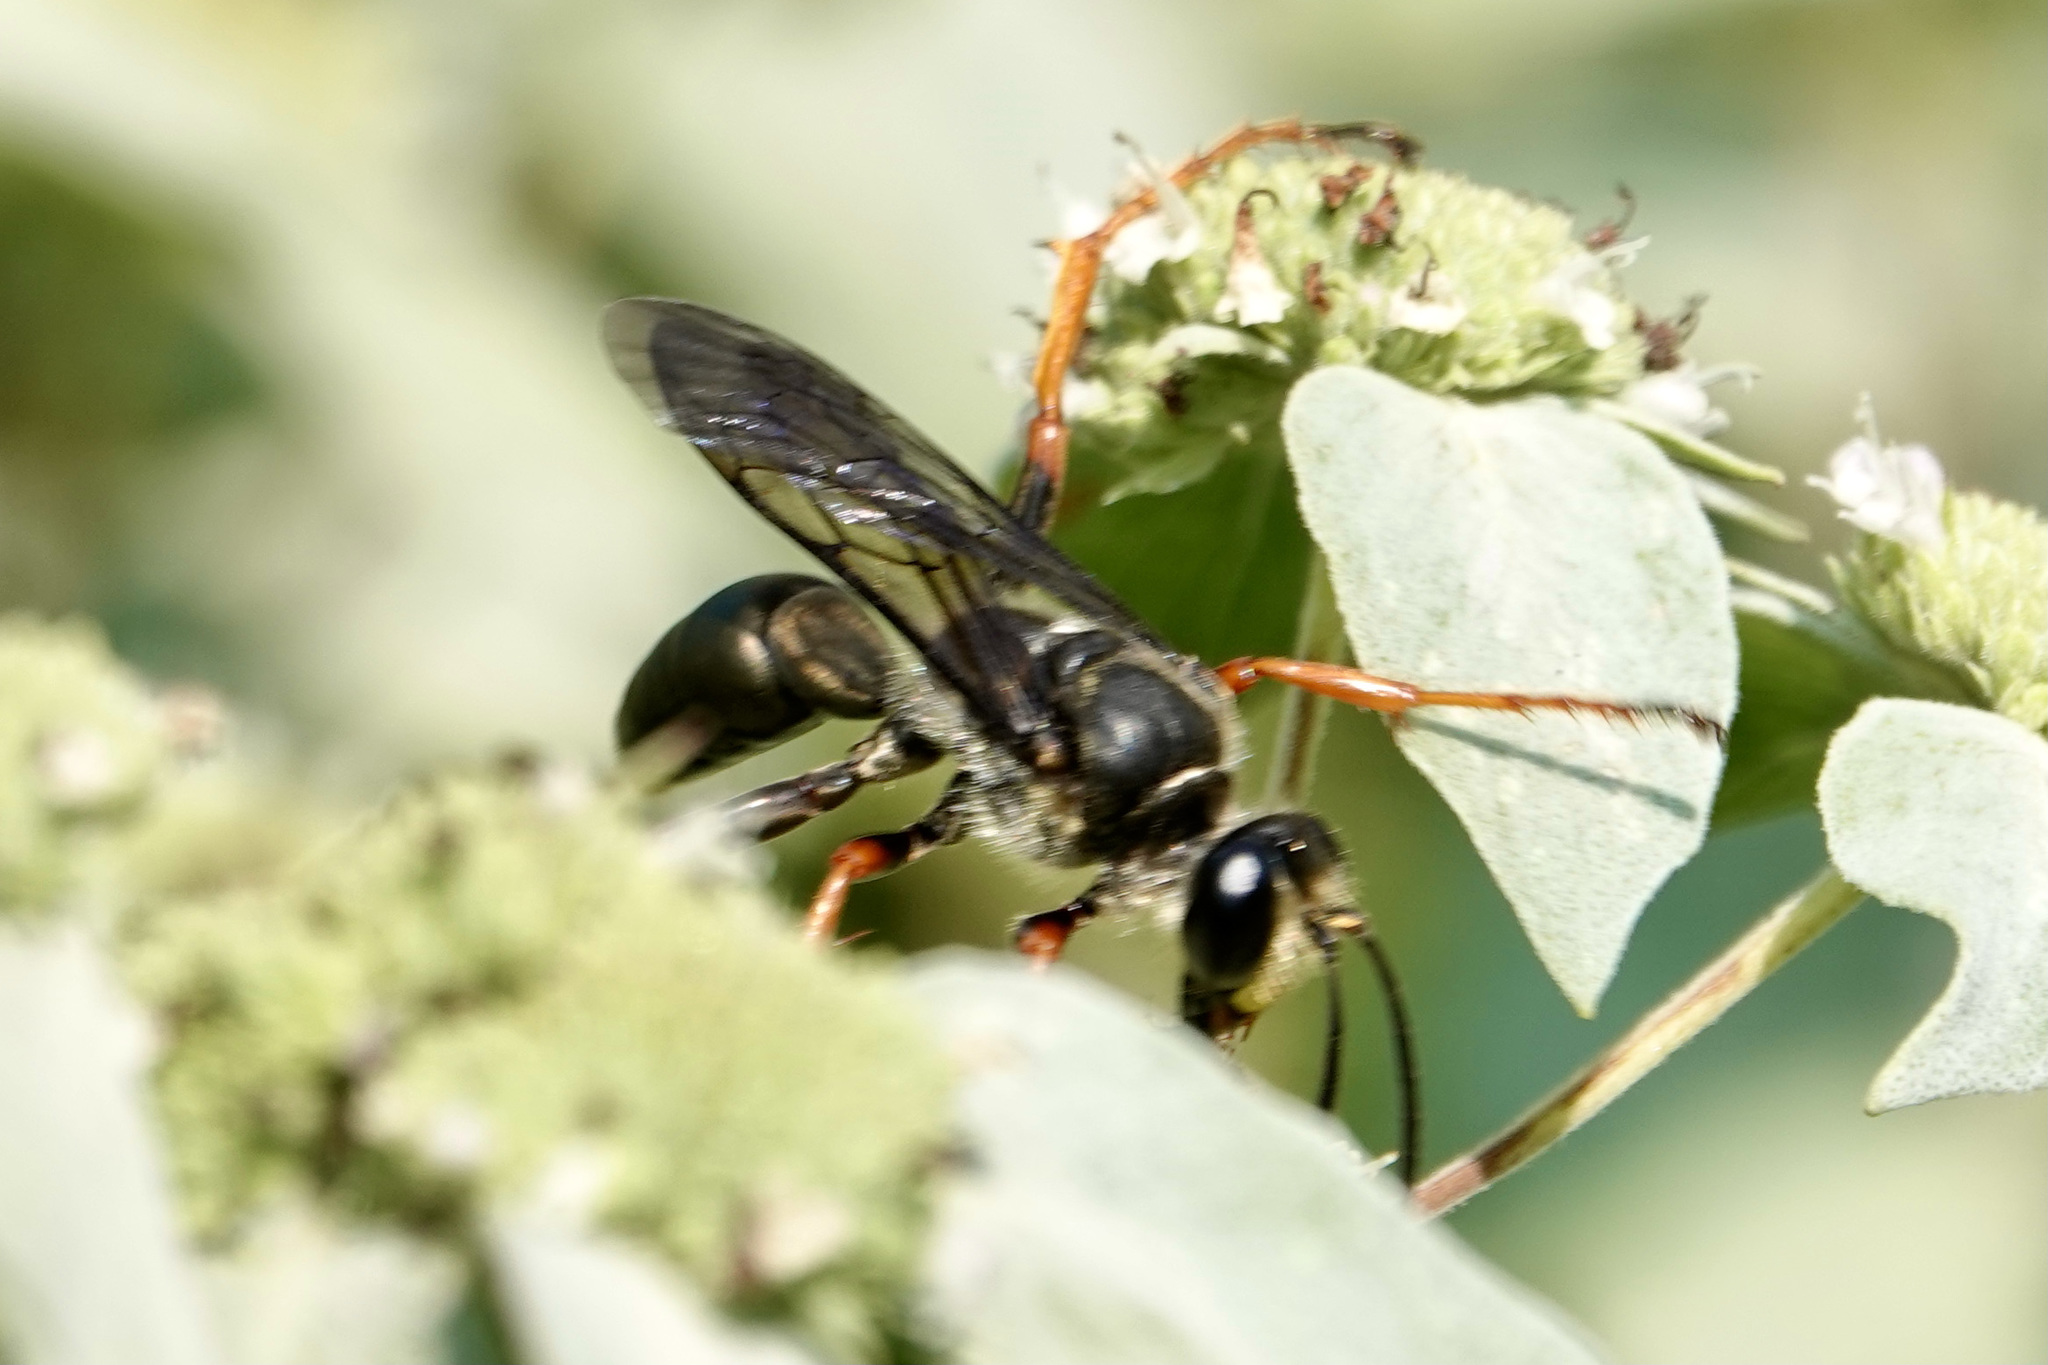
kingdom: Animalia
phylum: Arthropoda
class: Insecta
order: Hymenoptera
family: Sphecidae
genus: Sphex
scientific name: Sphex nudus
